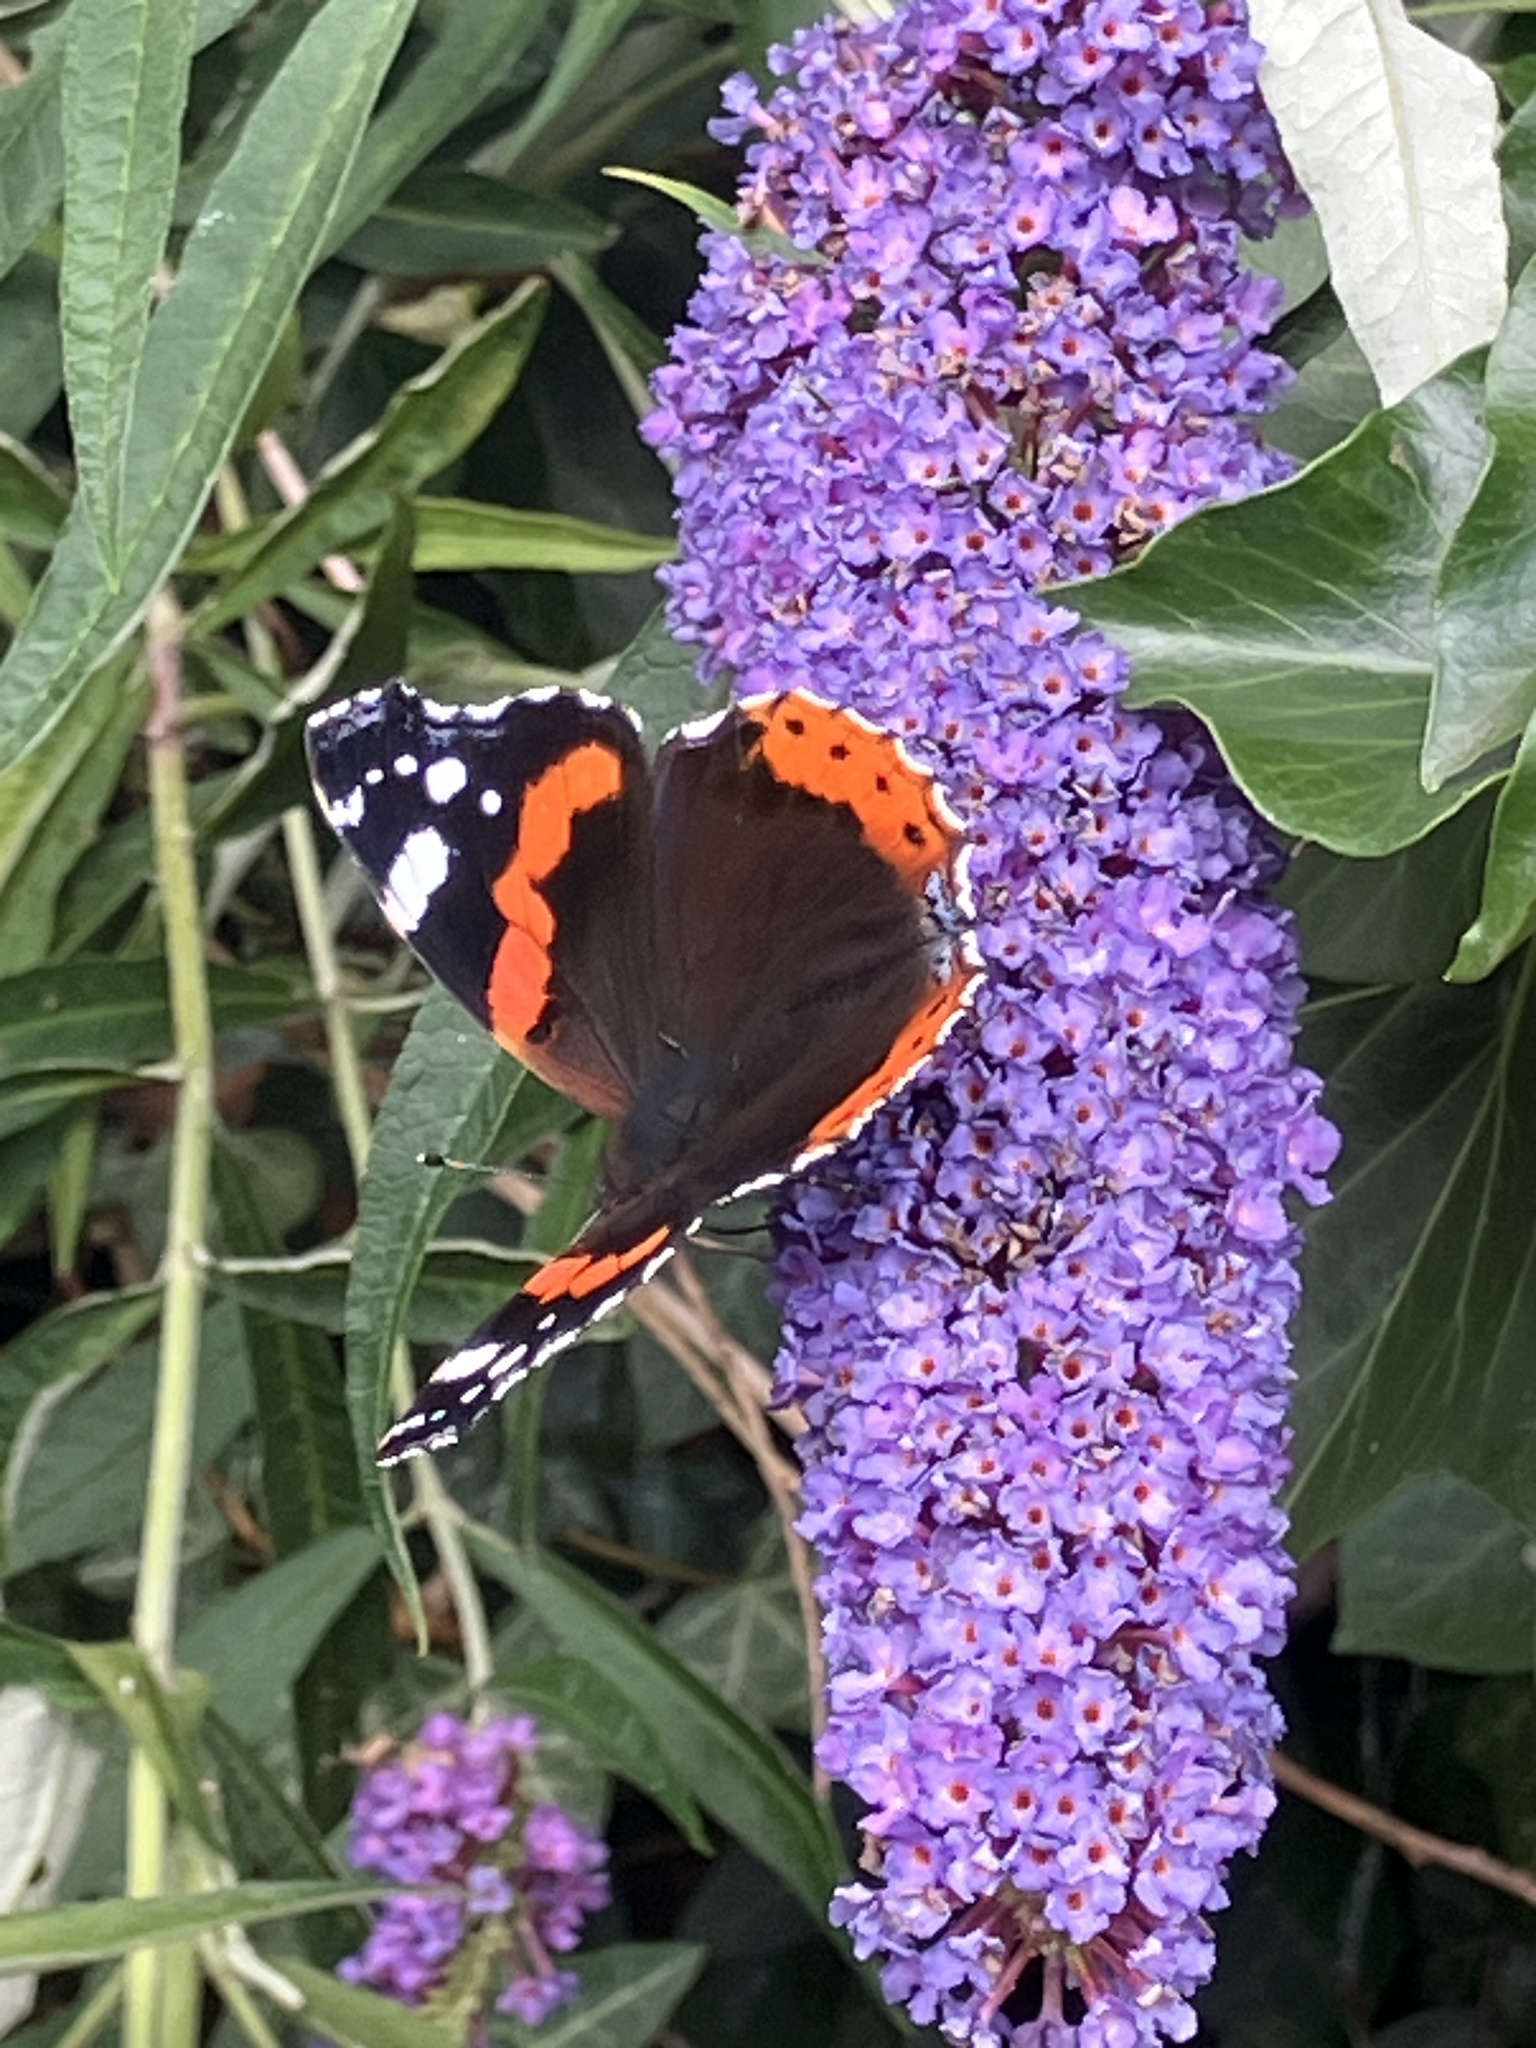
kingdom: Animalia
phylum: Arthropoda
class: Insecta
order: Lepidoptera
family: Nymphalidae
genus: Vanessa
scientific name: Vanessa atalanta
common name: Red admiral
